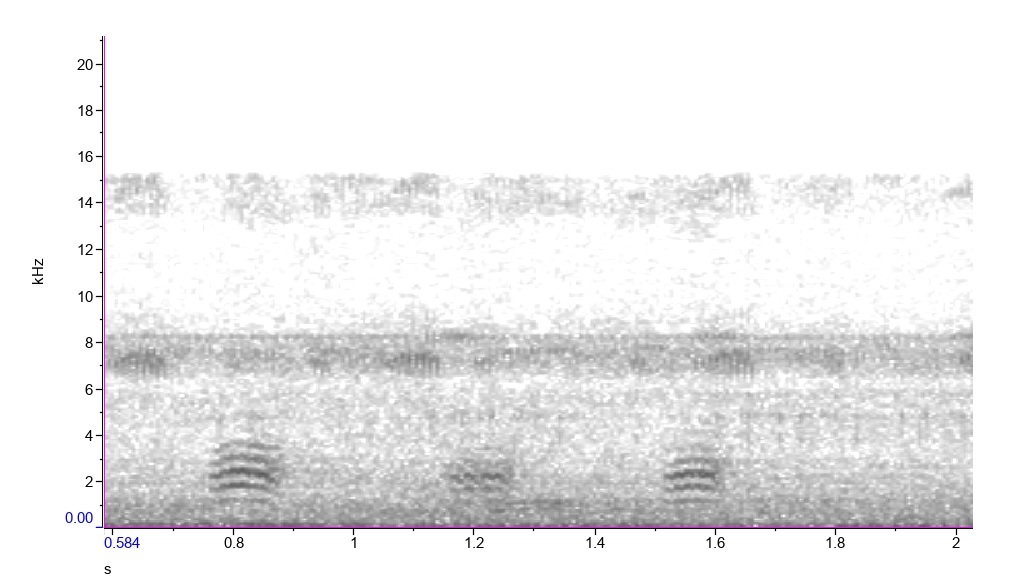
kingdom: Animalia
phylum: Chordata
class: Aves
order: Passeriformes
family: Sittidae
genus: Sitta
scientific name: Sitta carolinensis
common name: White-breasted nuthatch
